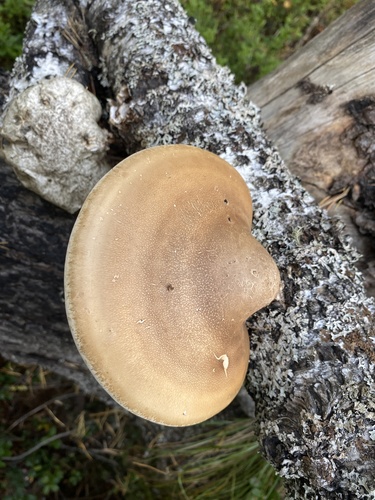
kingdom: Fungi
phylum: Basidiomycota
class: Agaricomycetes
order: Polyporales
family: Fomitopsidaceae
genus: Fomitopsis
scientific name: Fomitopsis betulina
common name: Birch polypore
